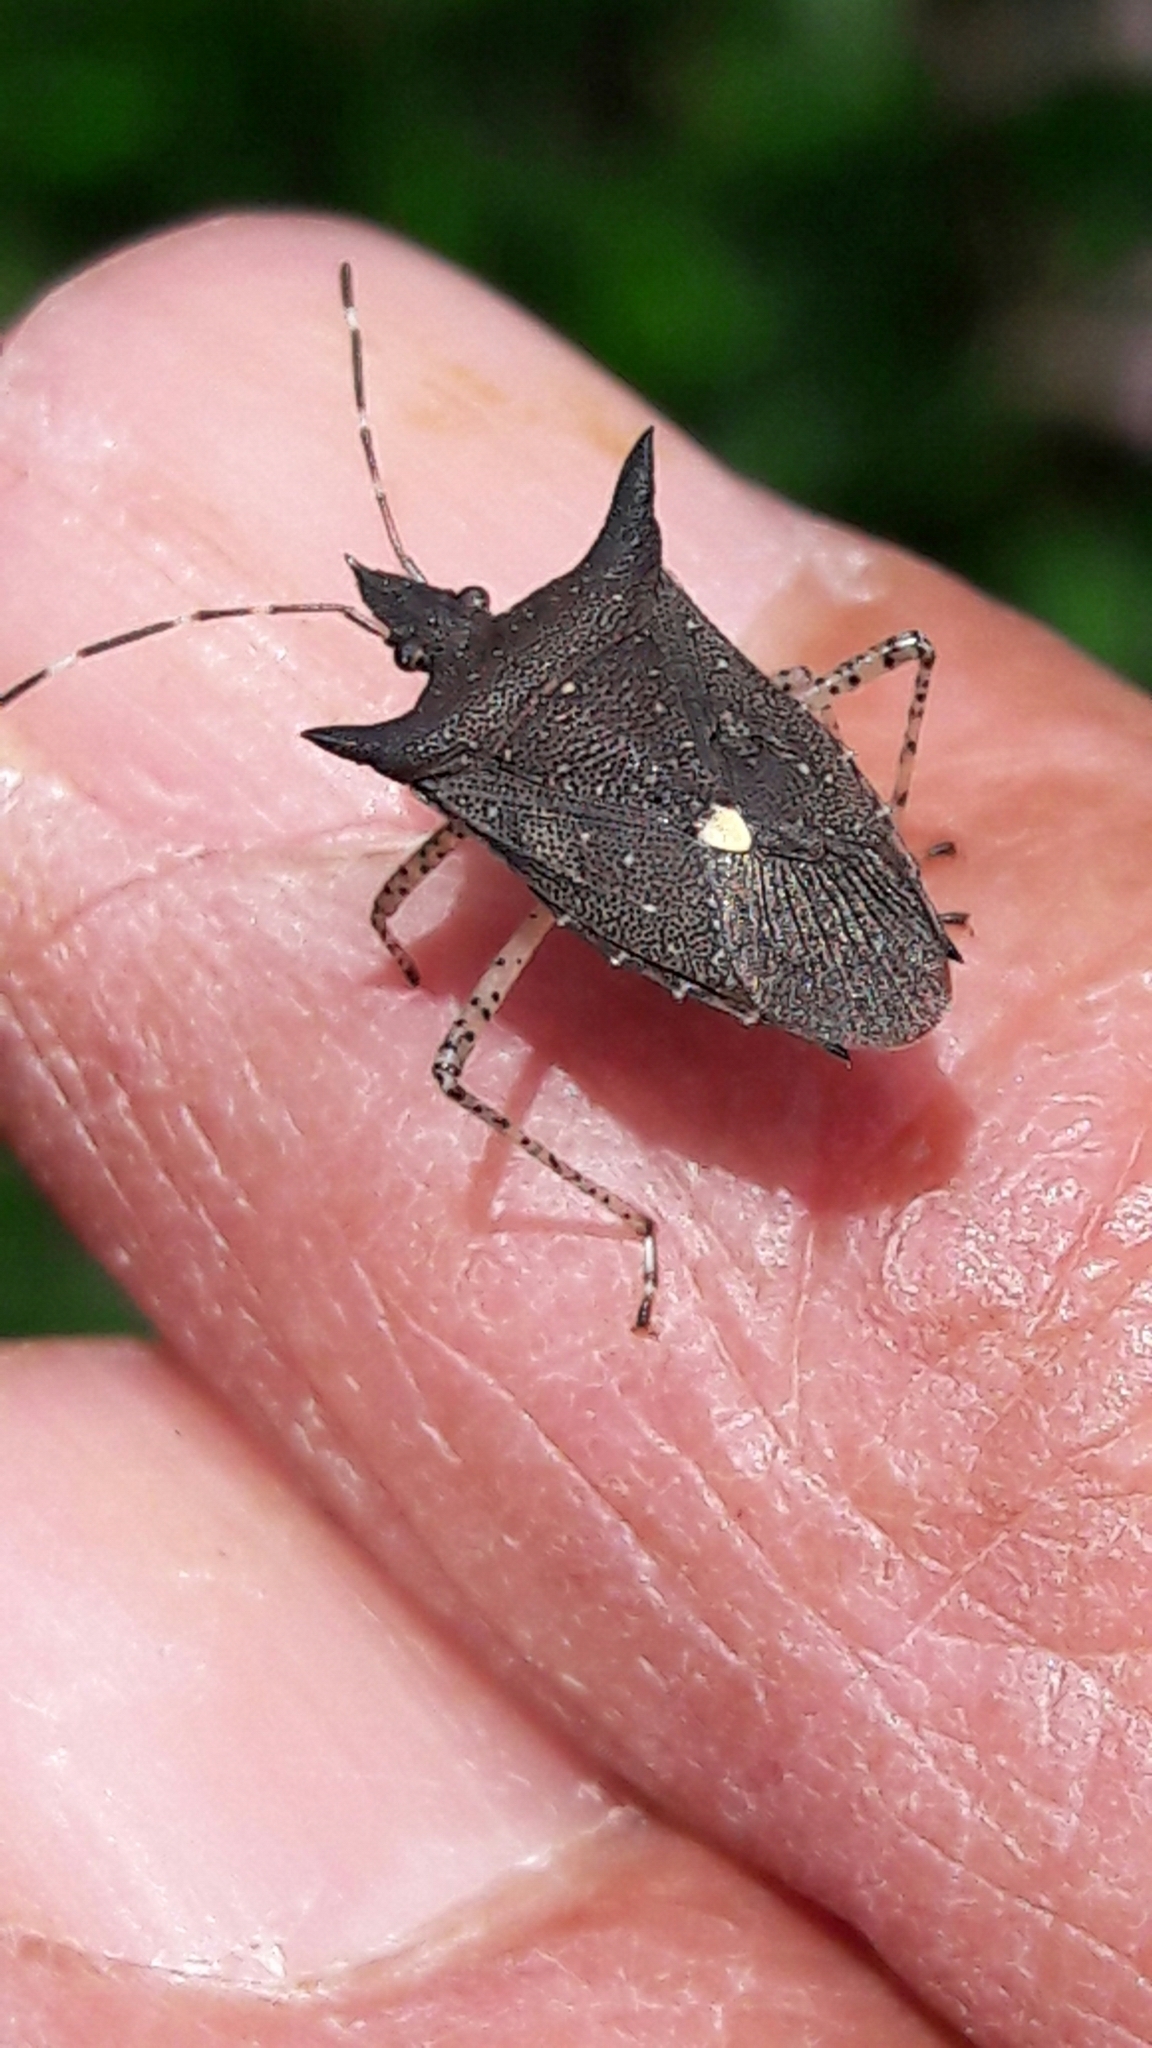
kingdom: Animalia
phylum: Arthropoda
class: Insecta
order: Hemiptera
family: Pentatomidae
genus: Proxys
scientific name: Proxys albopunctulatus
